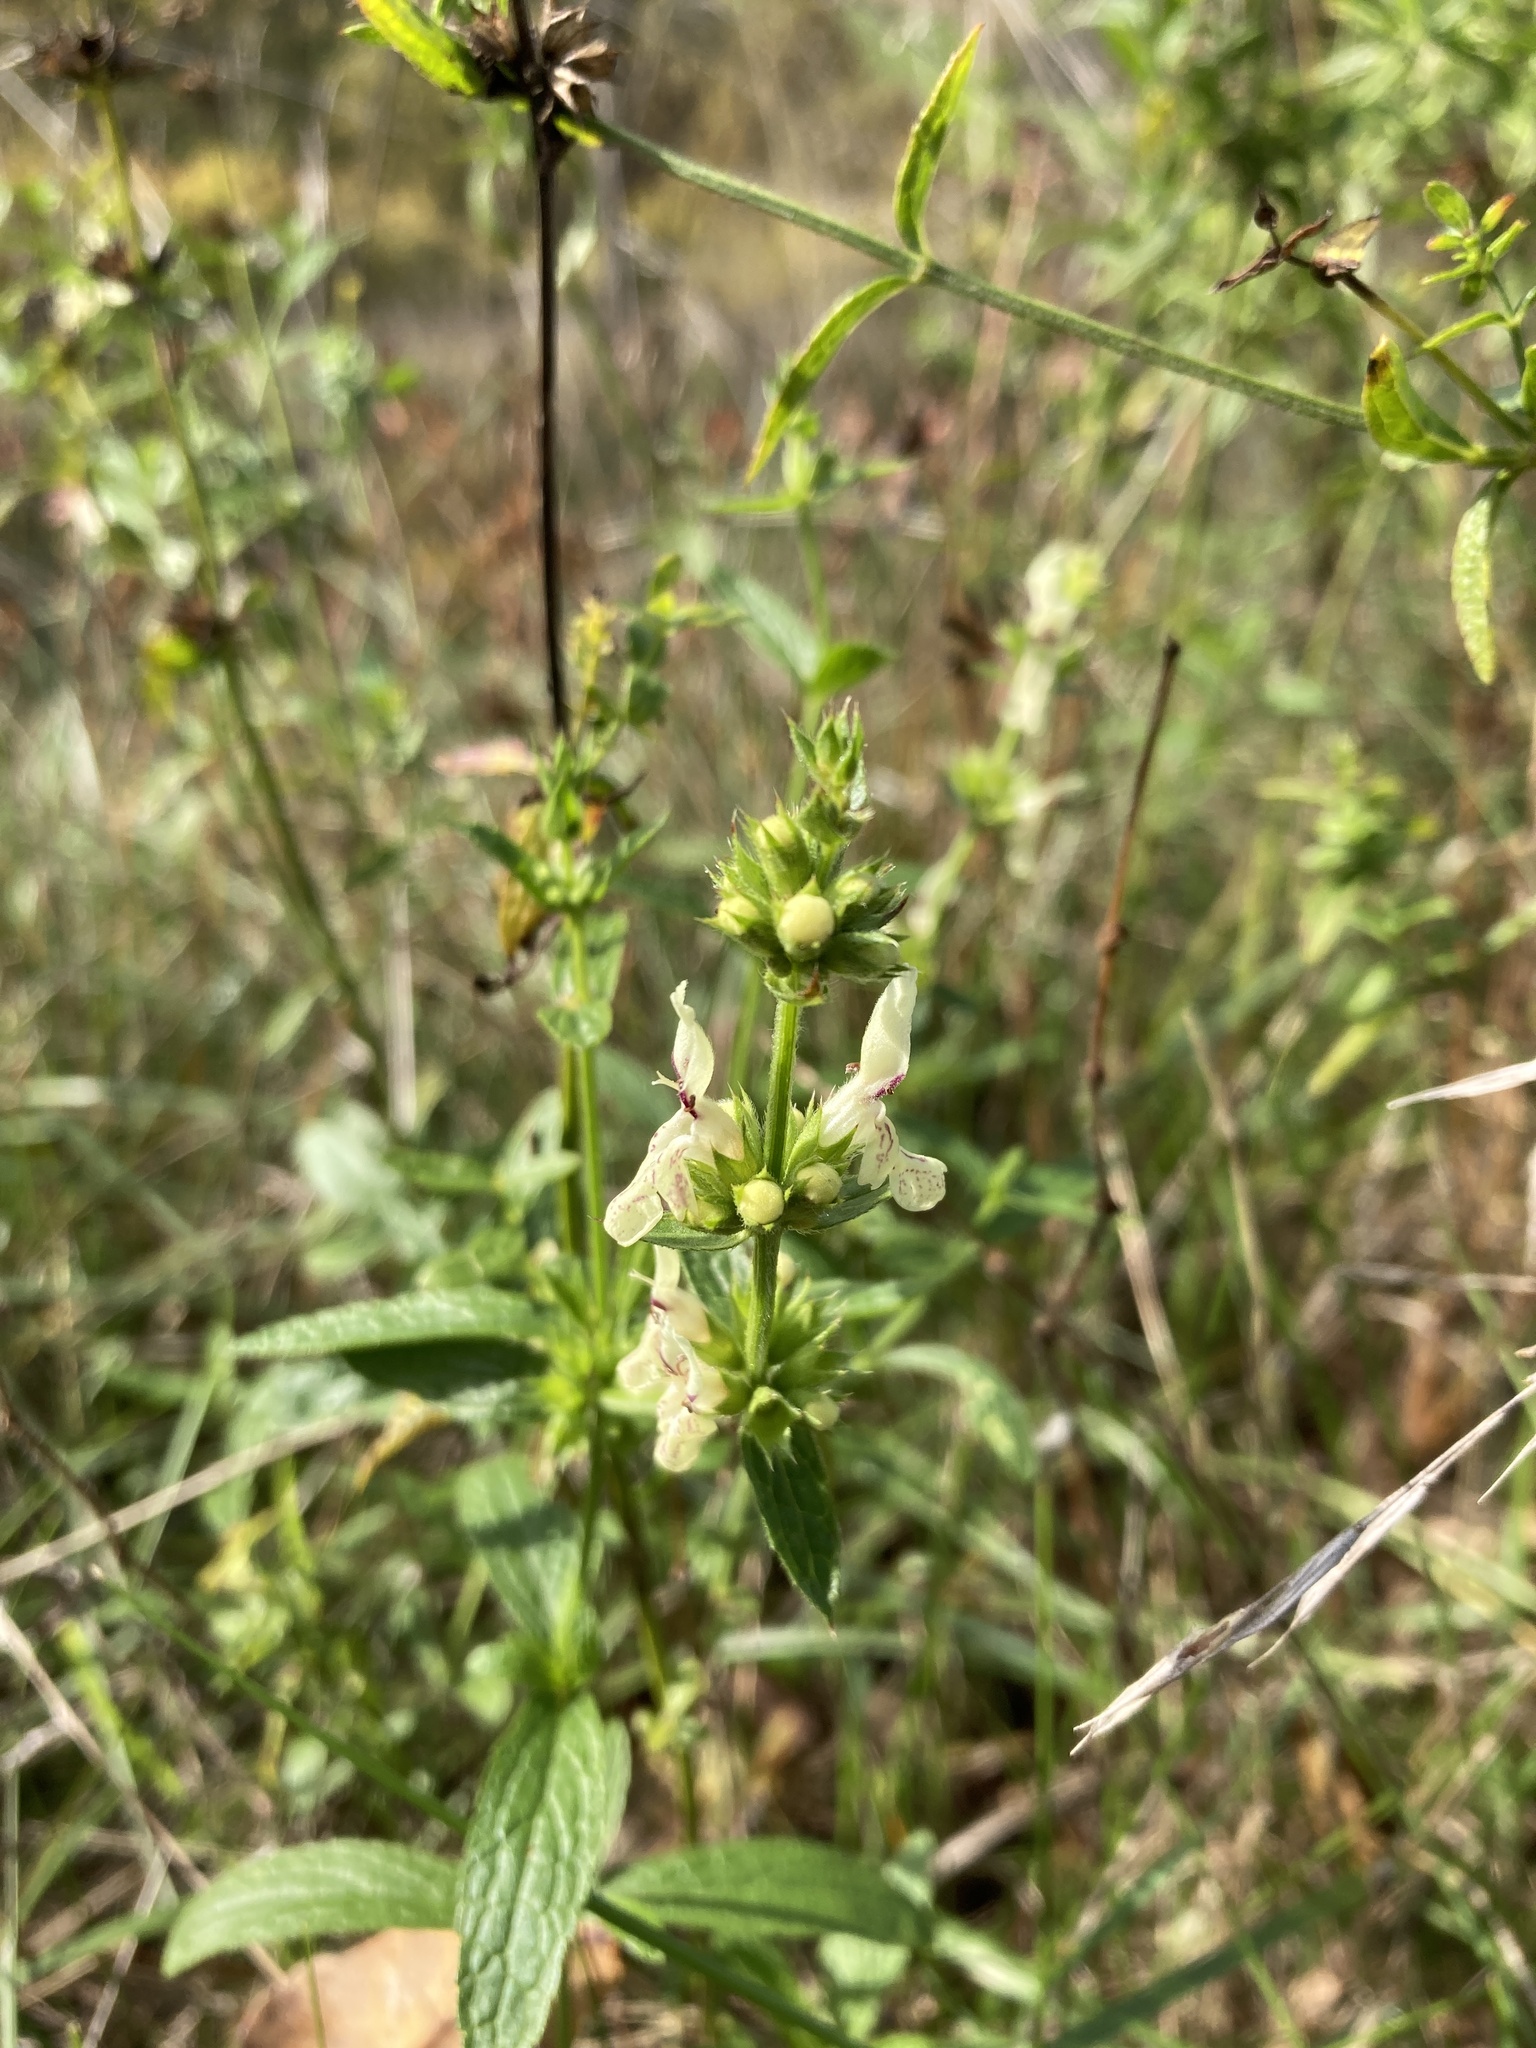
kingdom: Plantae
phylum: Tracheophyta
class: Magnoliopsida
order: Lamiales
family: Lamiaceae
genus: Stachys
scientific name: Stachys recta
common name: Perennial yellow-woundwort
